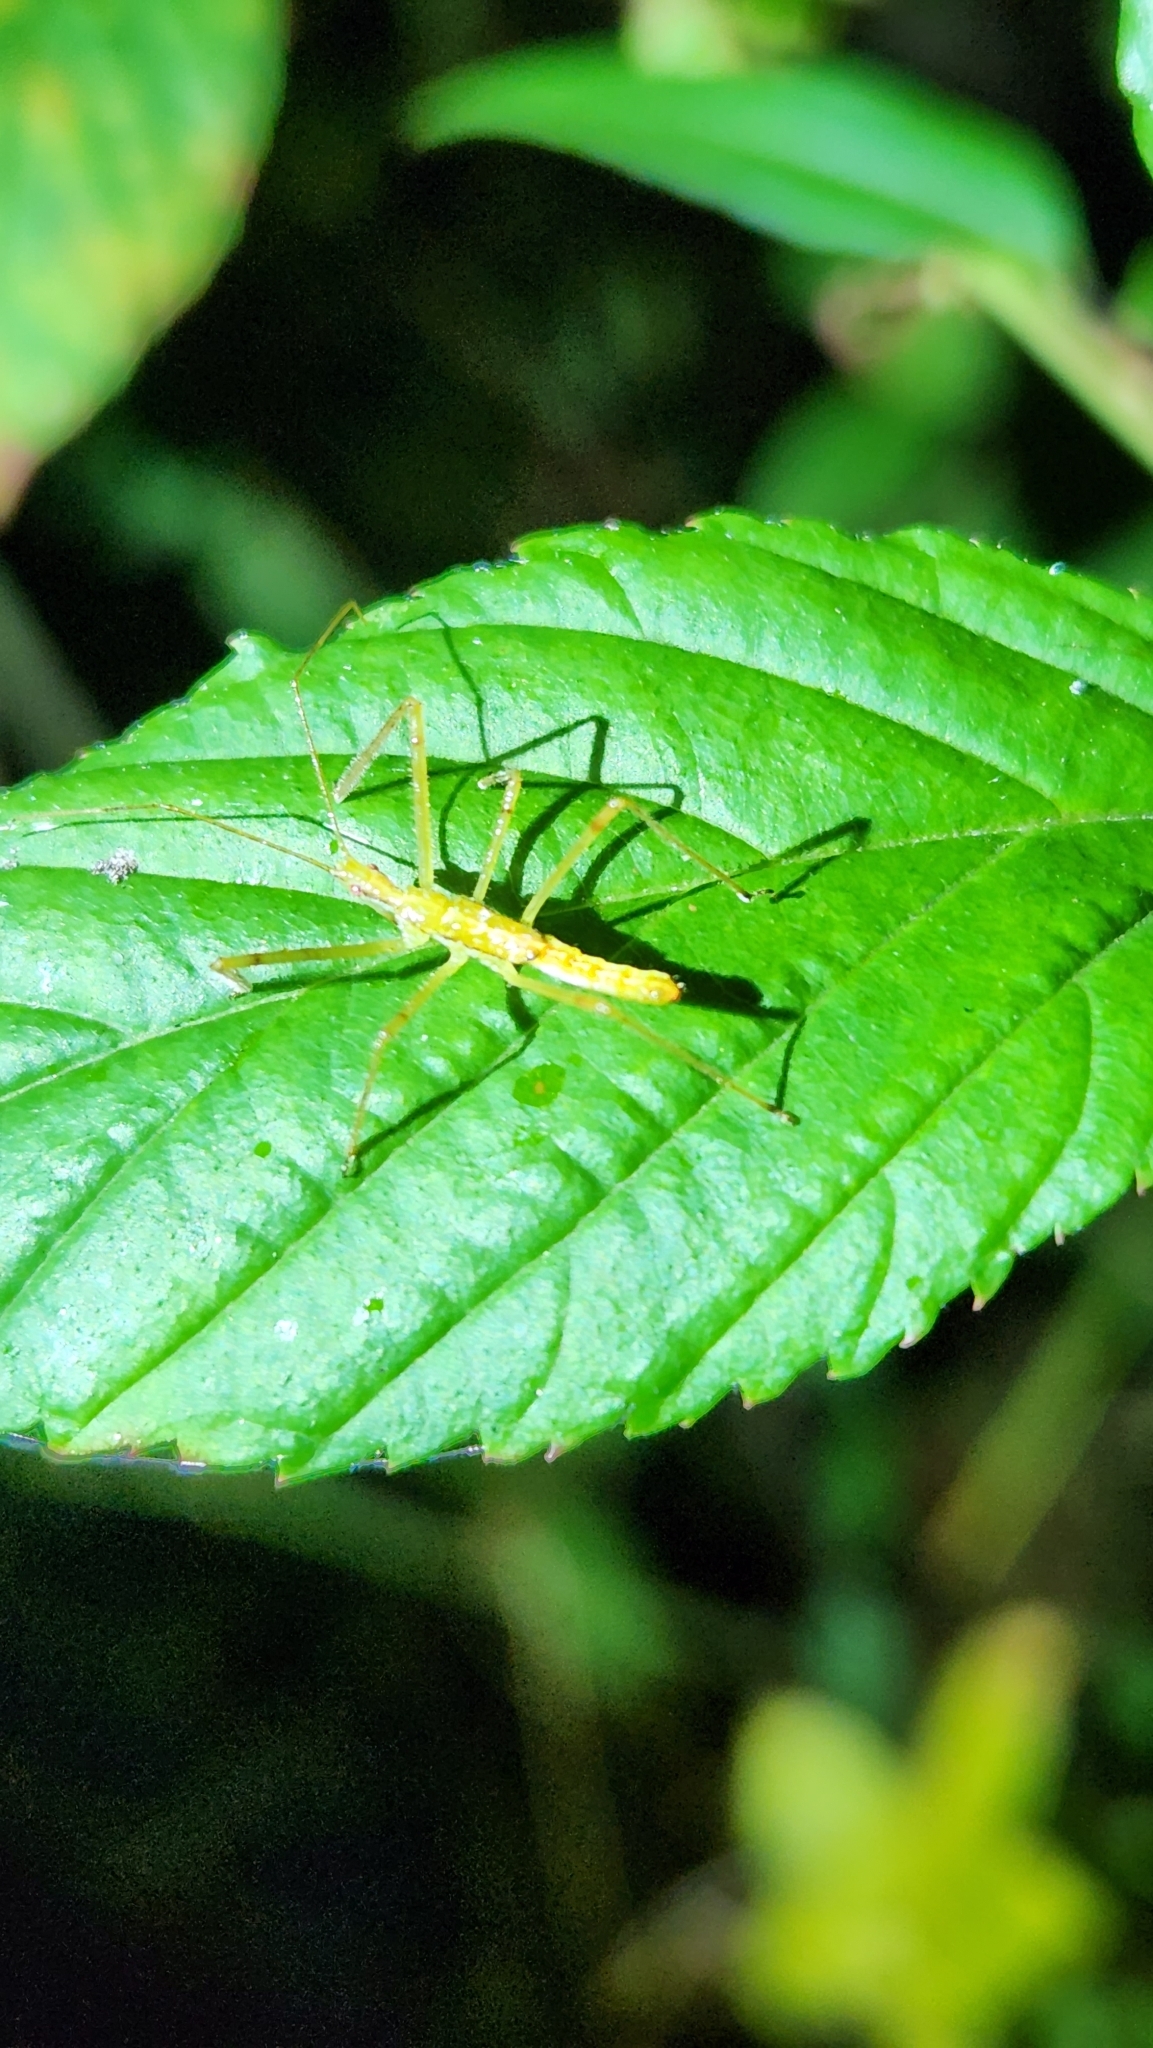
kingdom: Animalia
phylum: Arthropoda
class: Insecta
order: Hemiptera
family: Reduviidae
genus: Zelus
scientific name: Zelus luridus
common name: Pale green assassin bug
